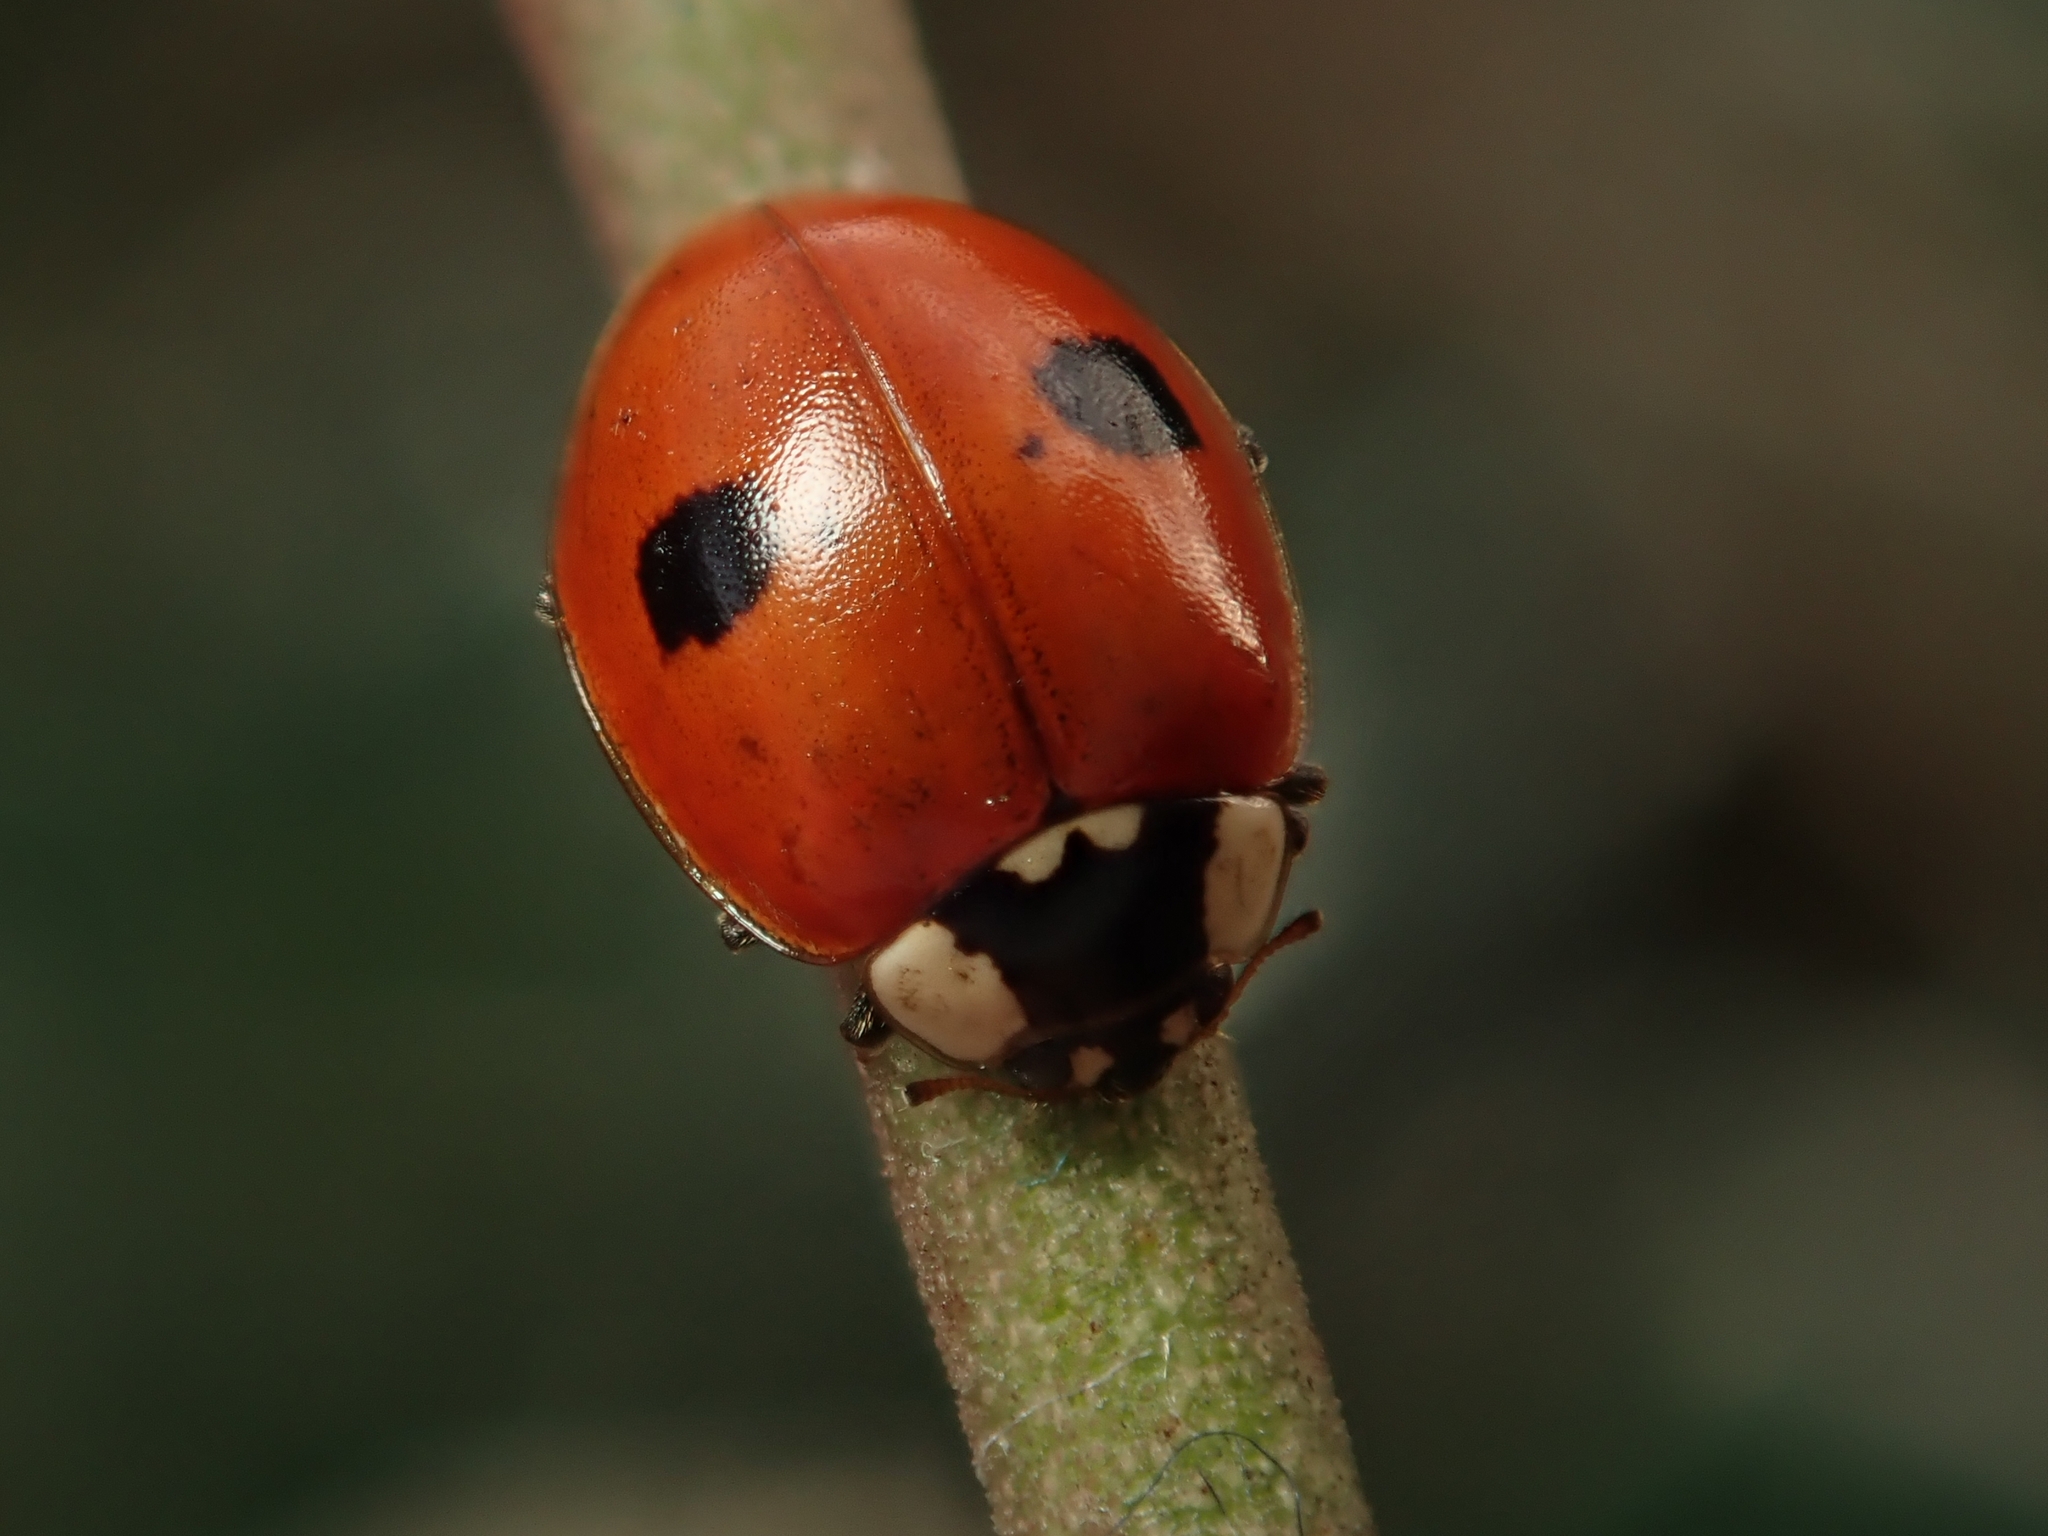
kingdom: Animalia
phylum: Arthropoda
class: Insecta
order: Coleoptera
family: Coccinellidae
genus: Adalia
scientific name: Adalia bipunctata
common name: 2-spot ladybird
